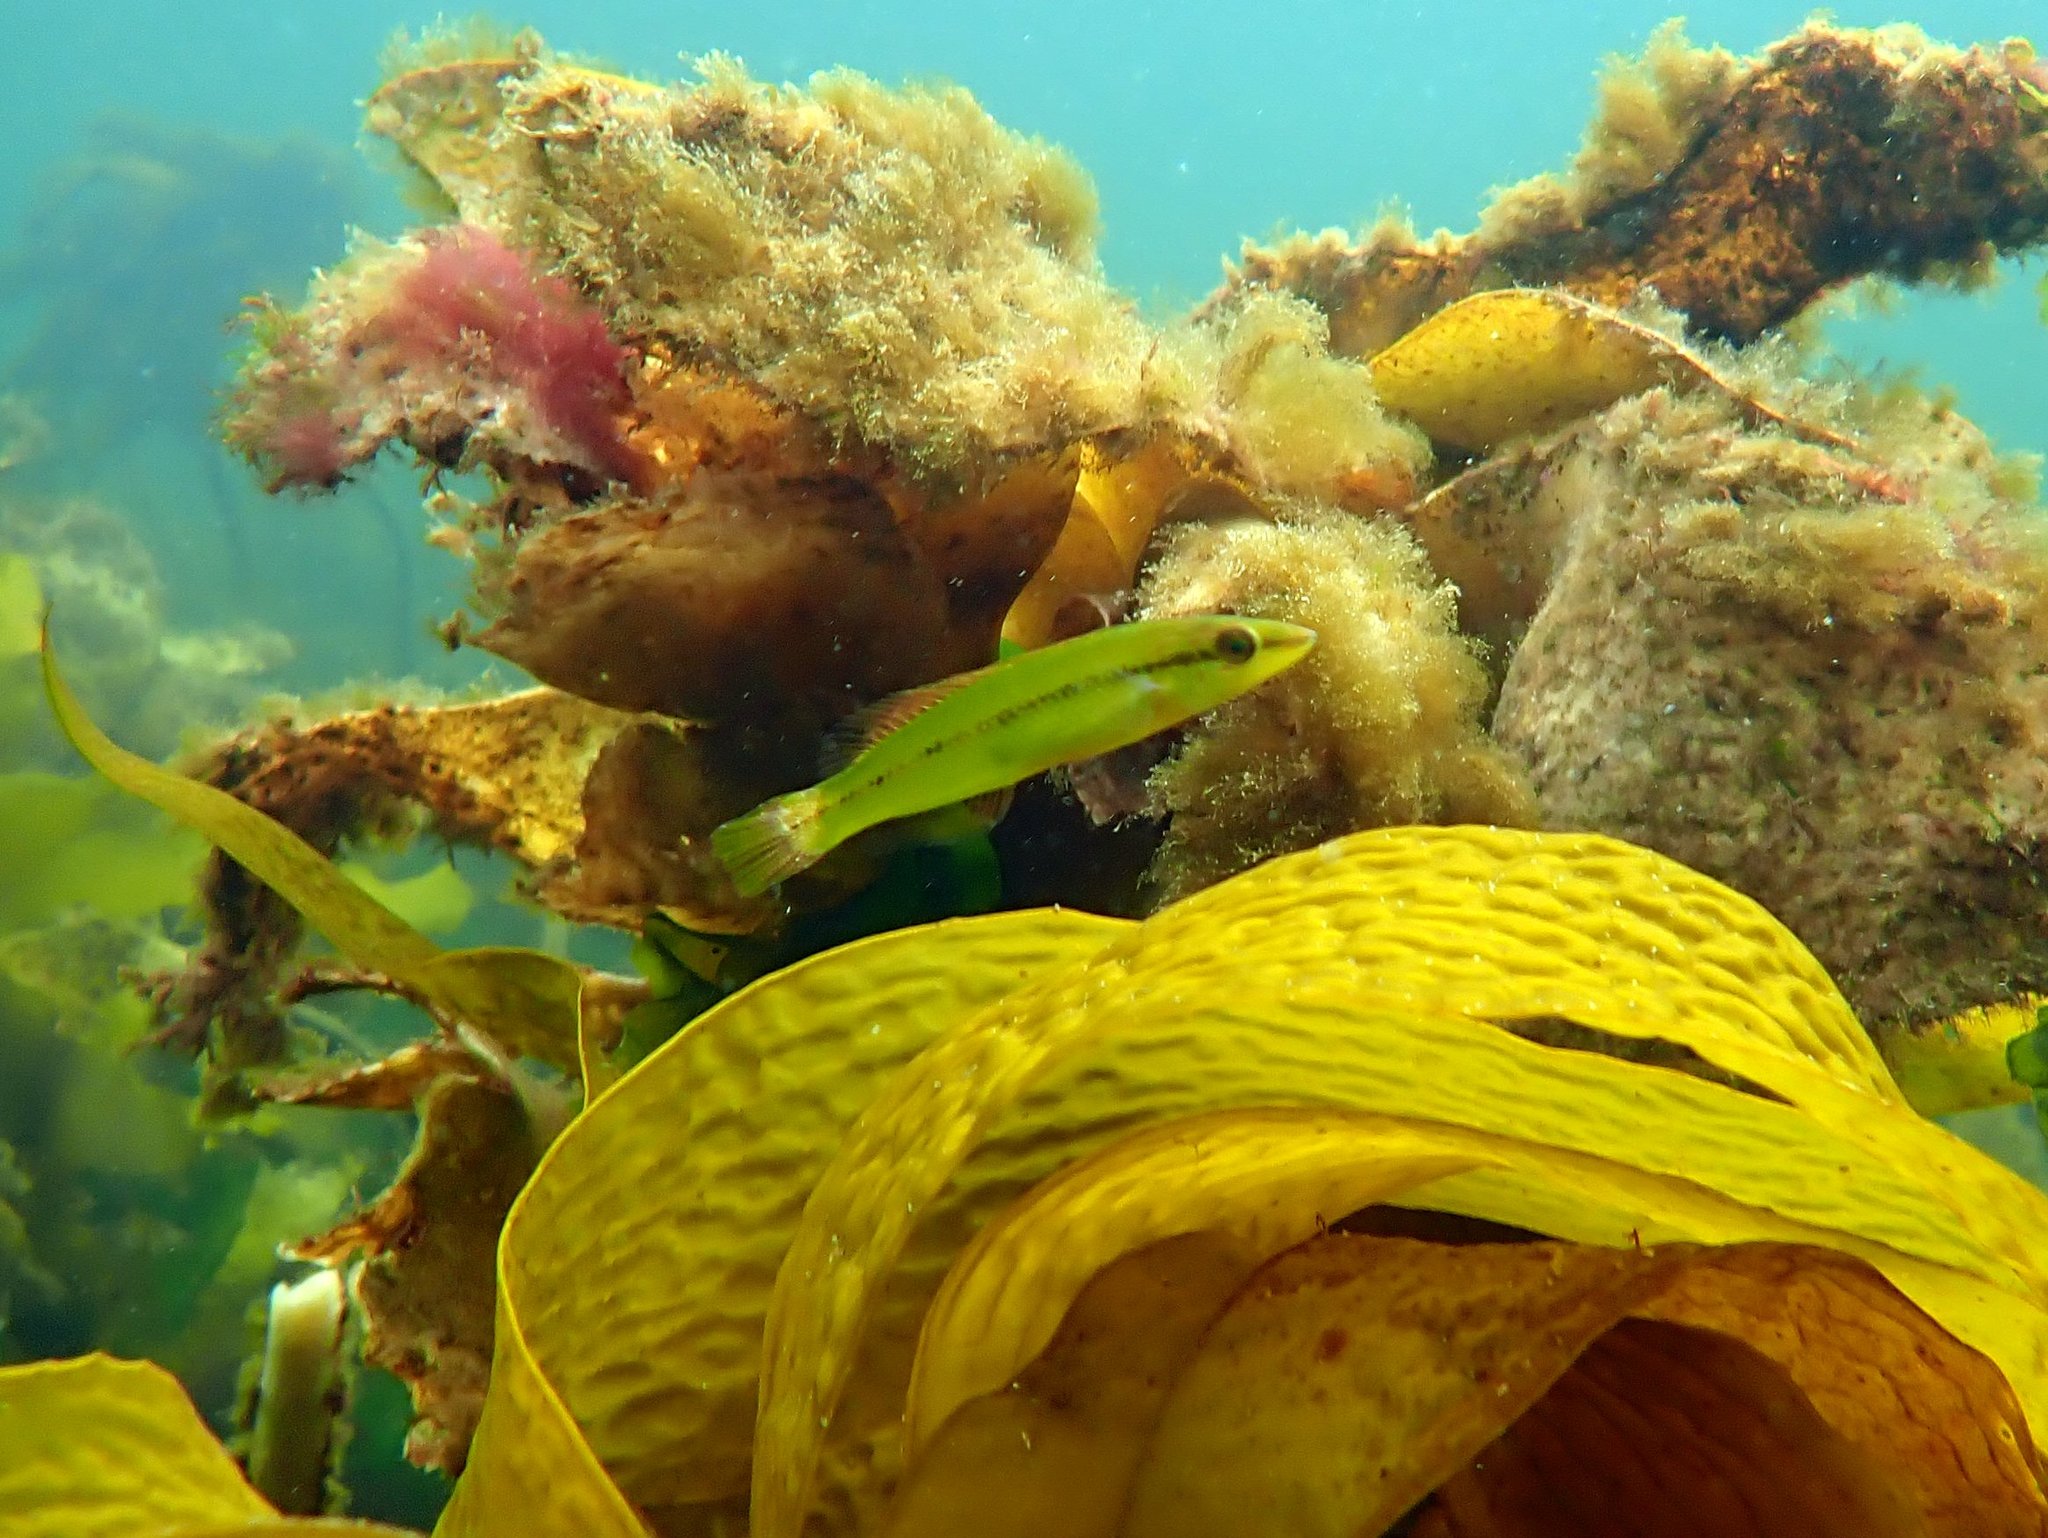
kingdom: Animalia
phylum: Chordata
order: Perciformes
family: Odacidae
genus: Neoodax
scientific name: Neoodax balteatus
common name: Ground mullet
